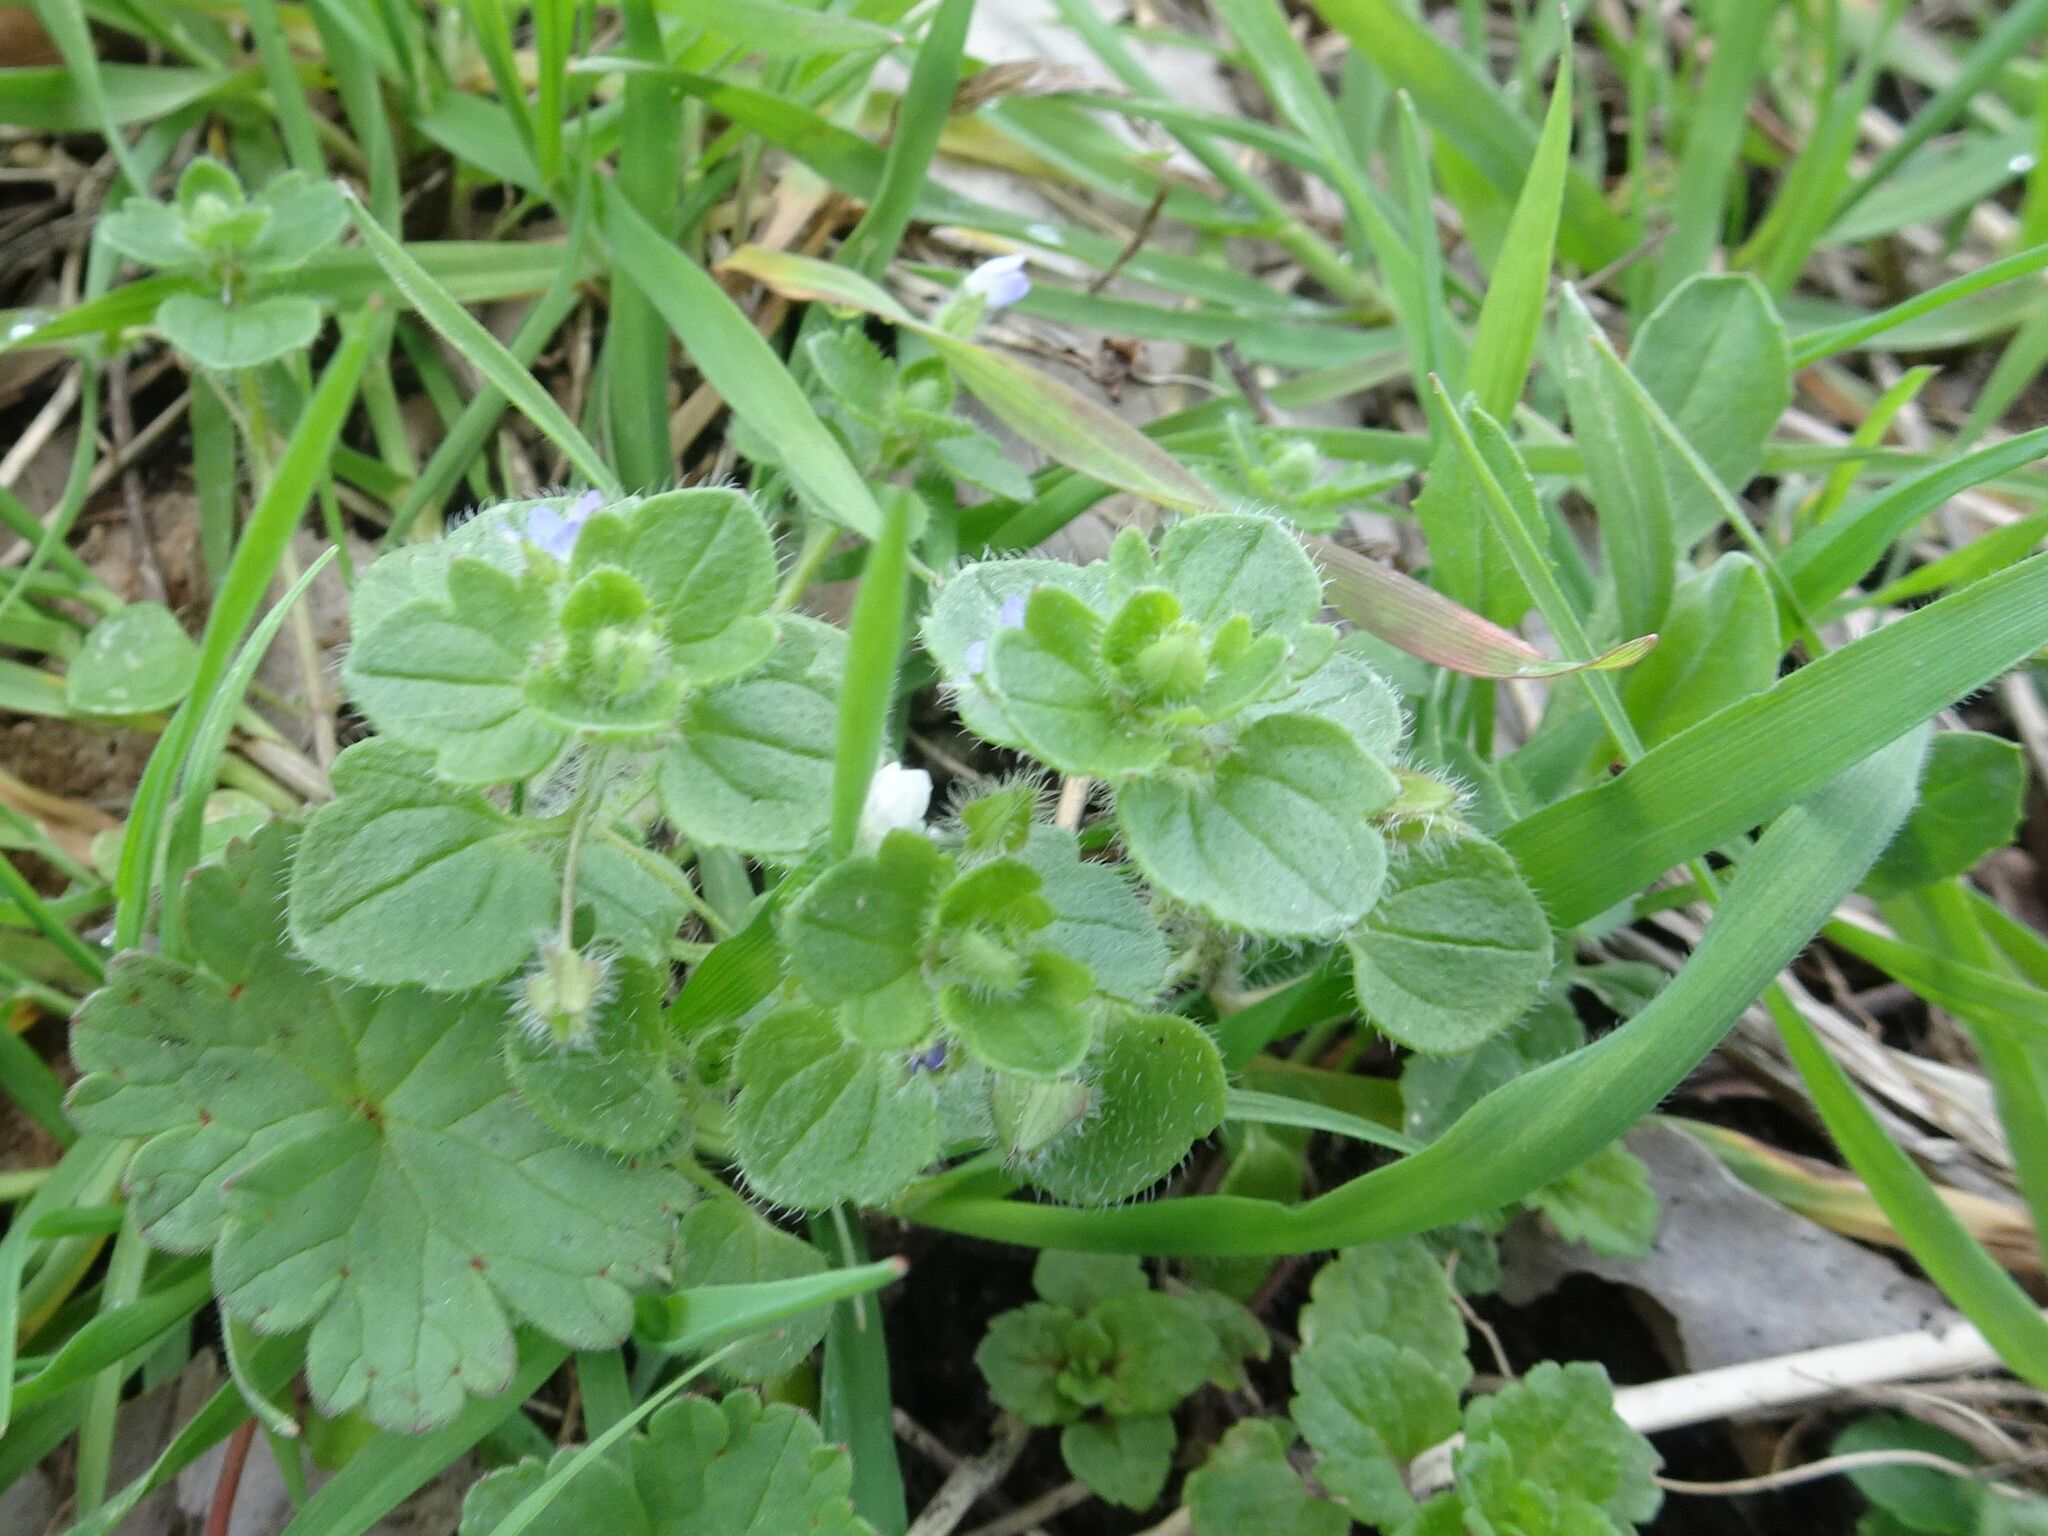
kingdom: Plantae
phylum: Tracheophyta
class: Magnoliopsida
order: Lamiales
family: Plantaginaceae
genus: Veronica
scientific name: Veronica hederifolia
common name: Ivy-leaved speedwell
